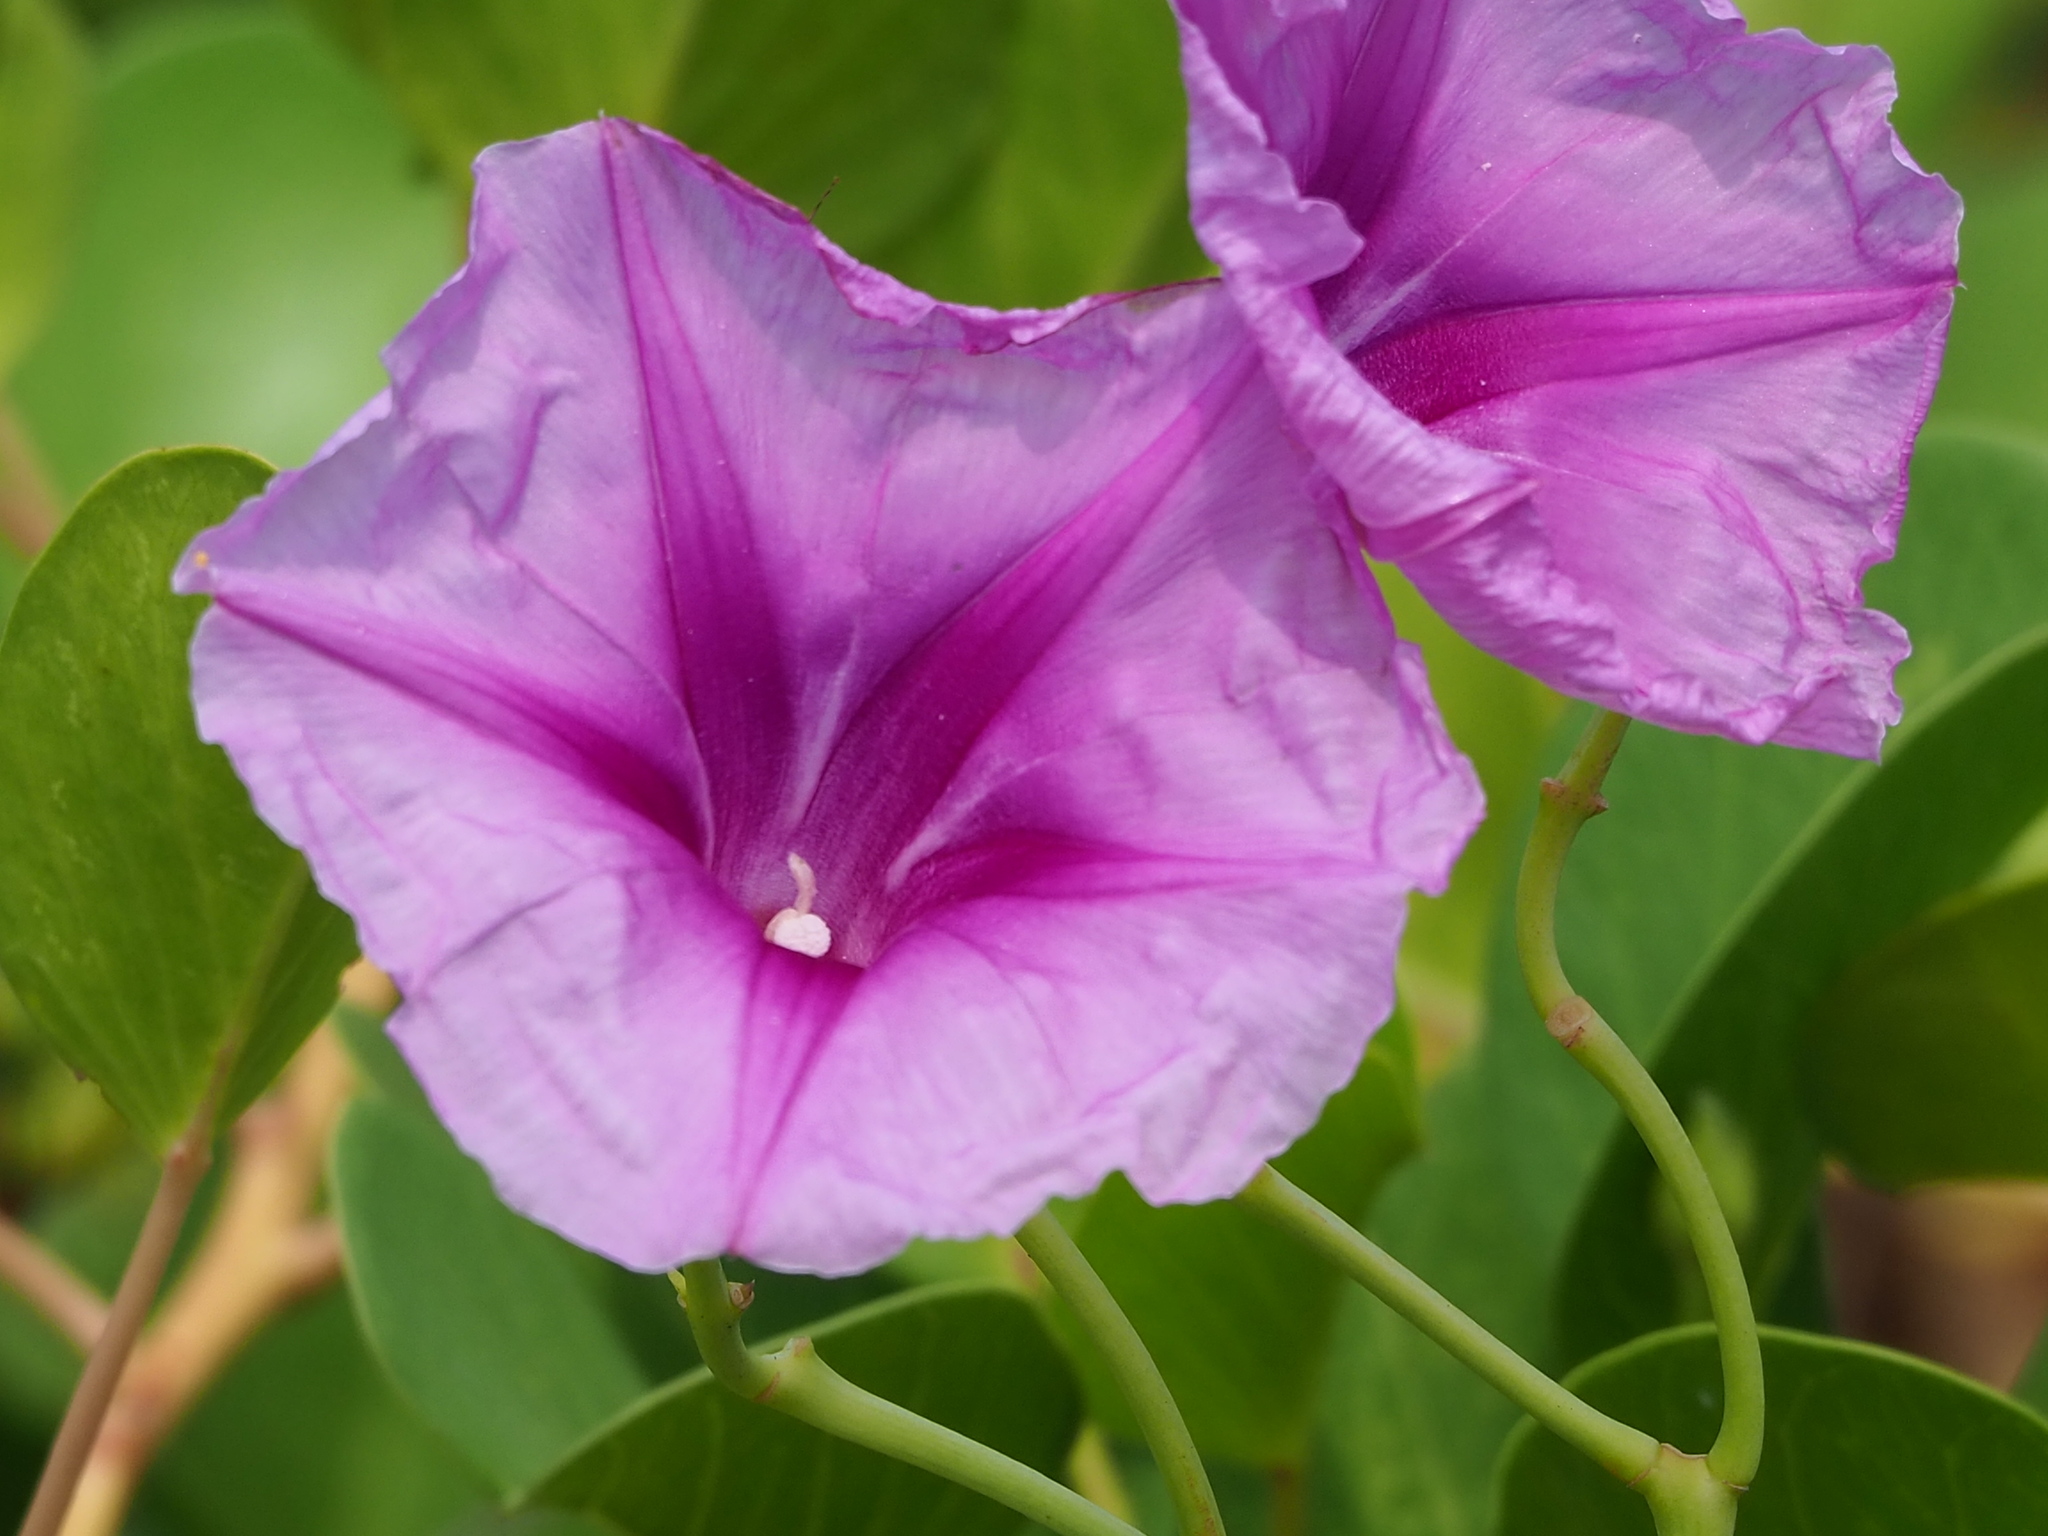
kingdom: Plantae
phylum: Tracheophyta
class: Magnoliopsida
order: Solanales
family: Convolvulaceae
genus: Ipomoea
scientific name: Ipomoea pes-caprae
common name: Beach morning glory
